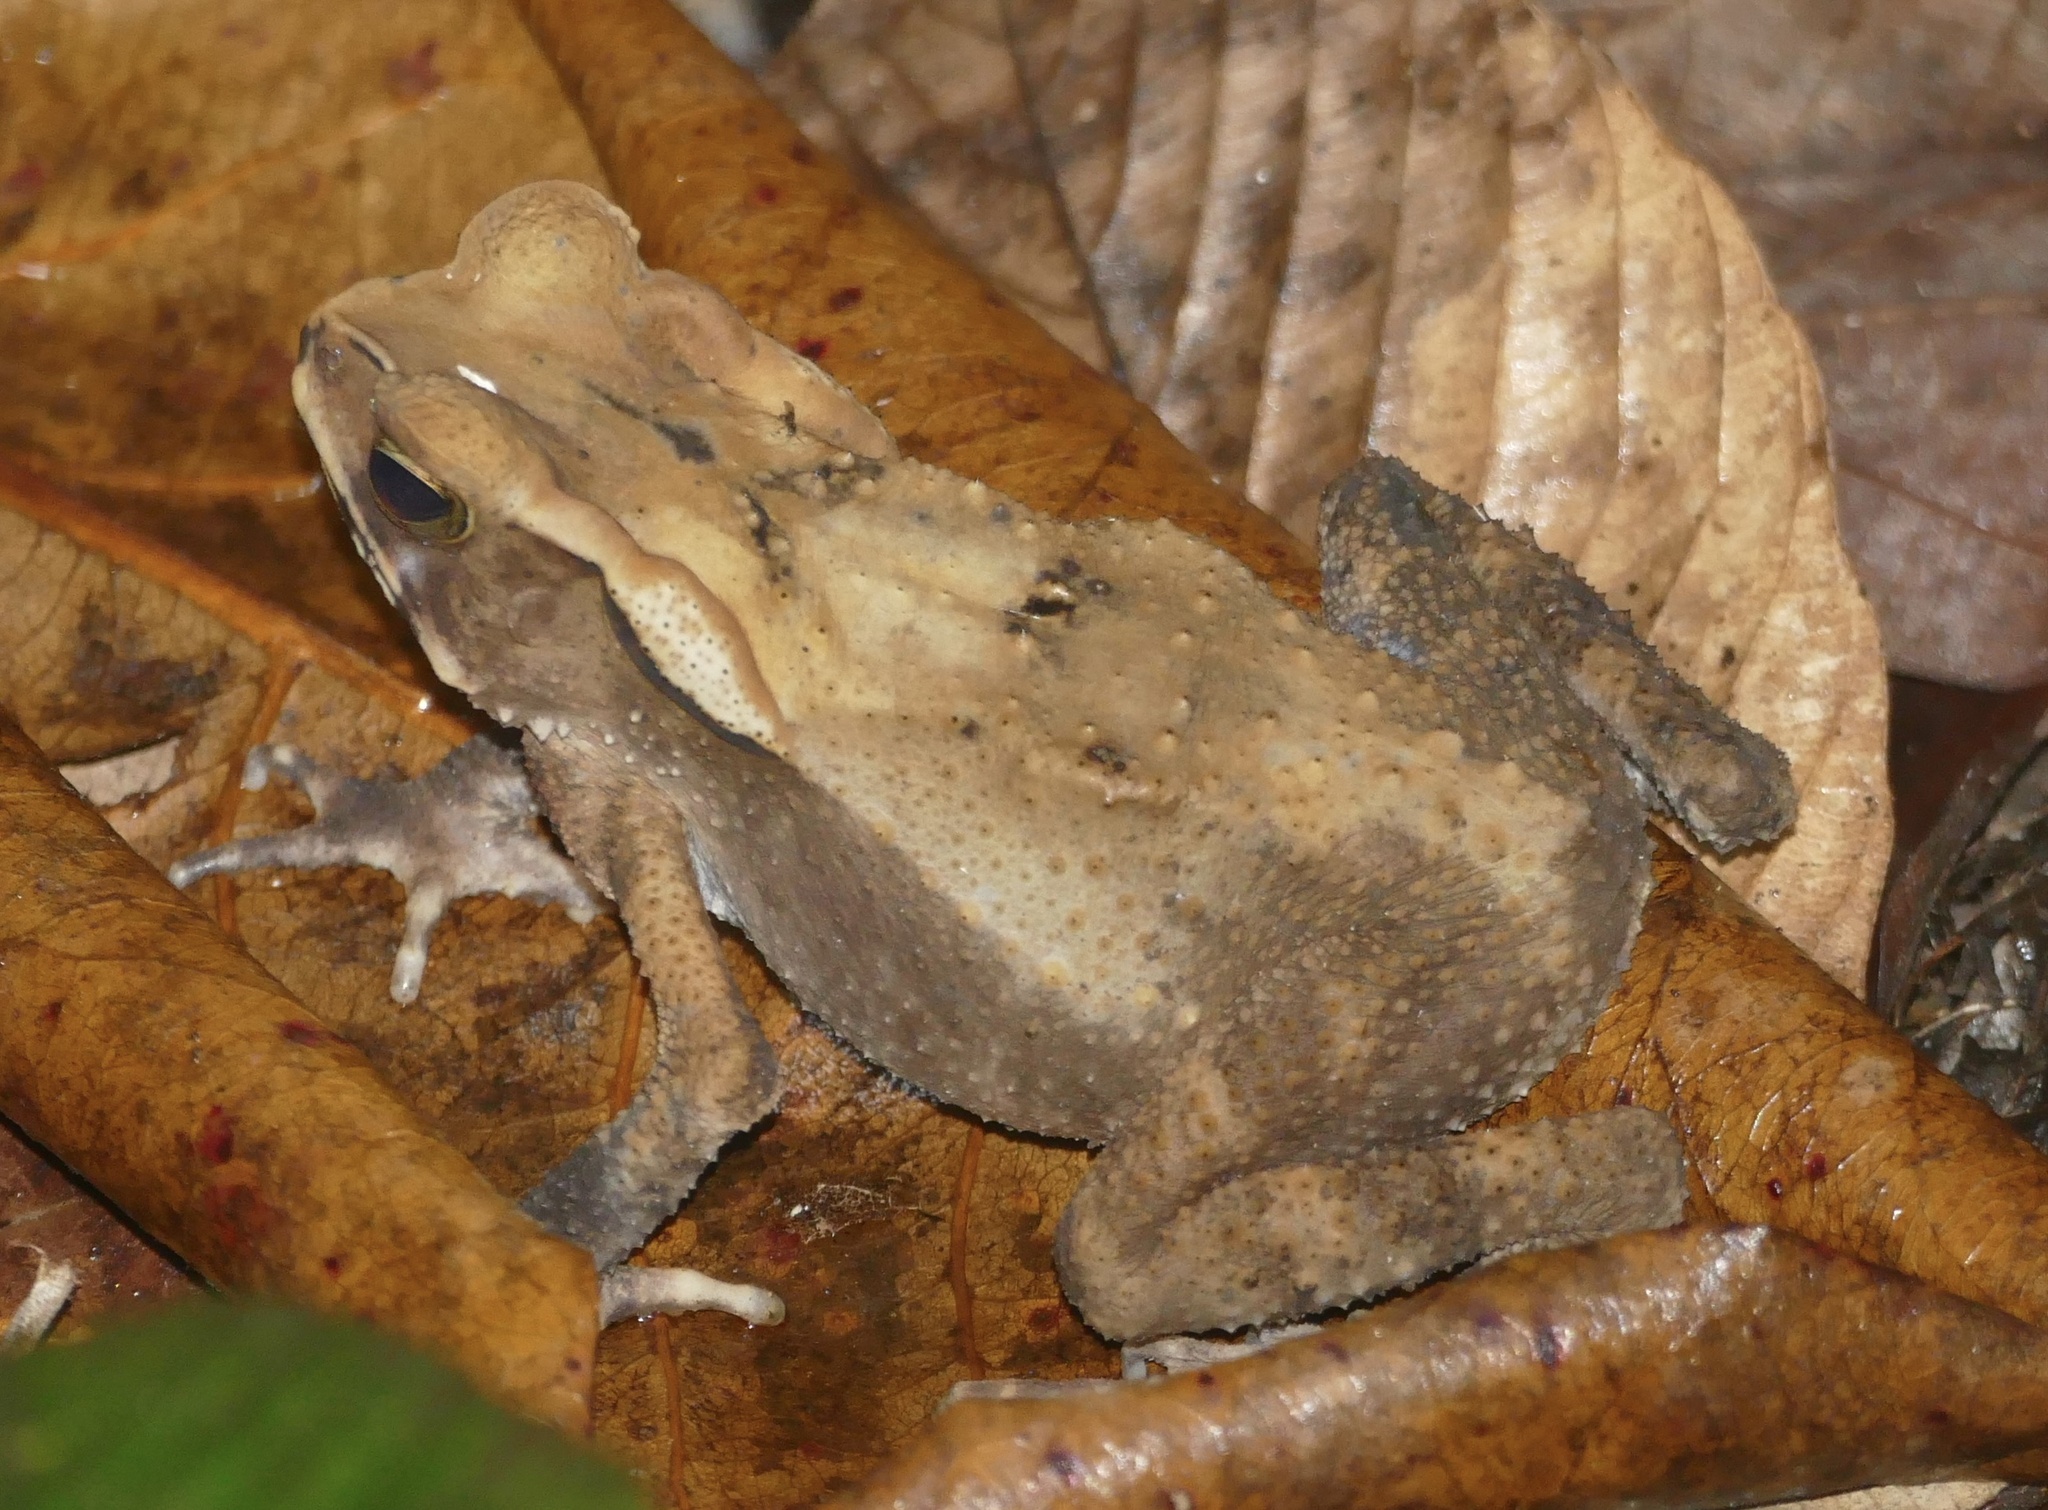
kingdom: Animalia
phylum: Chordata
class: Amphibia
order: Anura
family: Bufonidae
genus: Ingerophrynus
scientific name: Ingerophrynus celebensis
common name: Celebes toad
